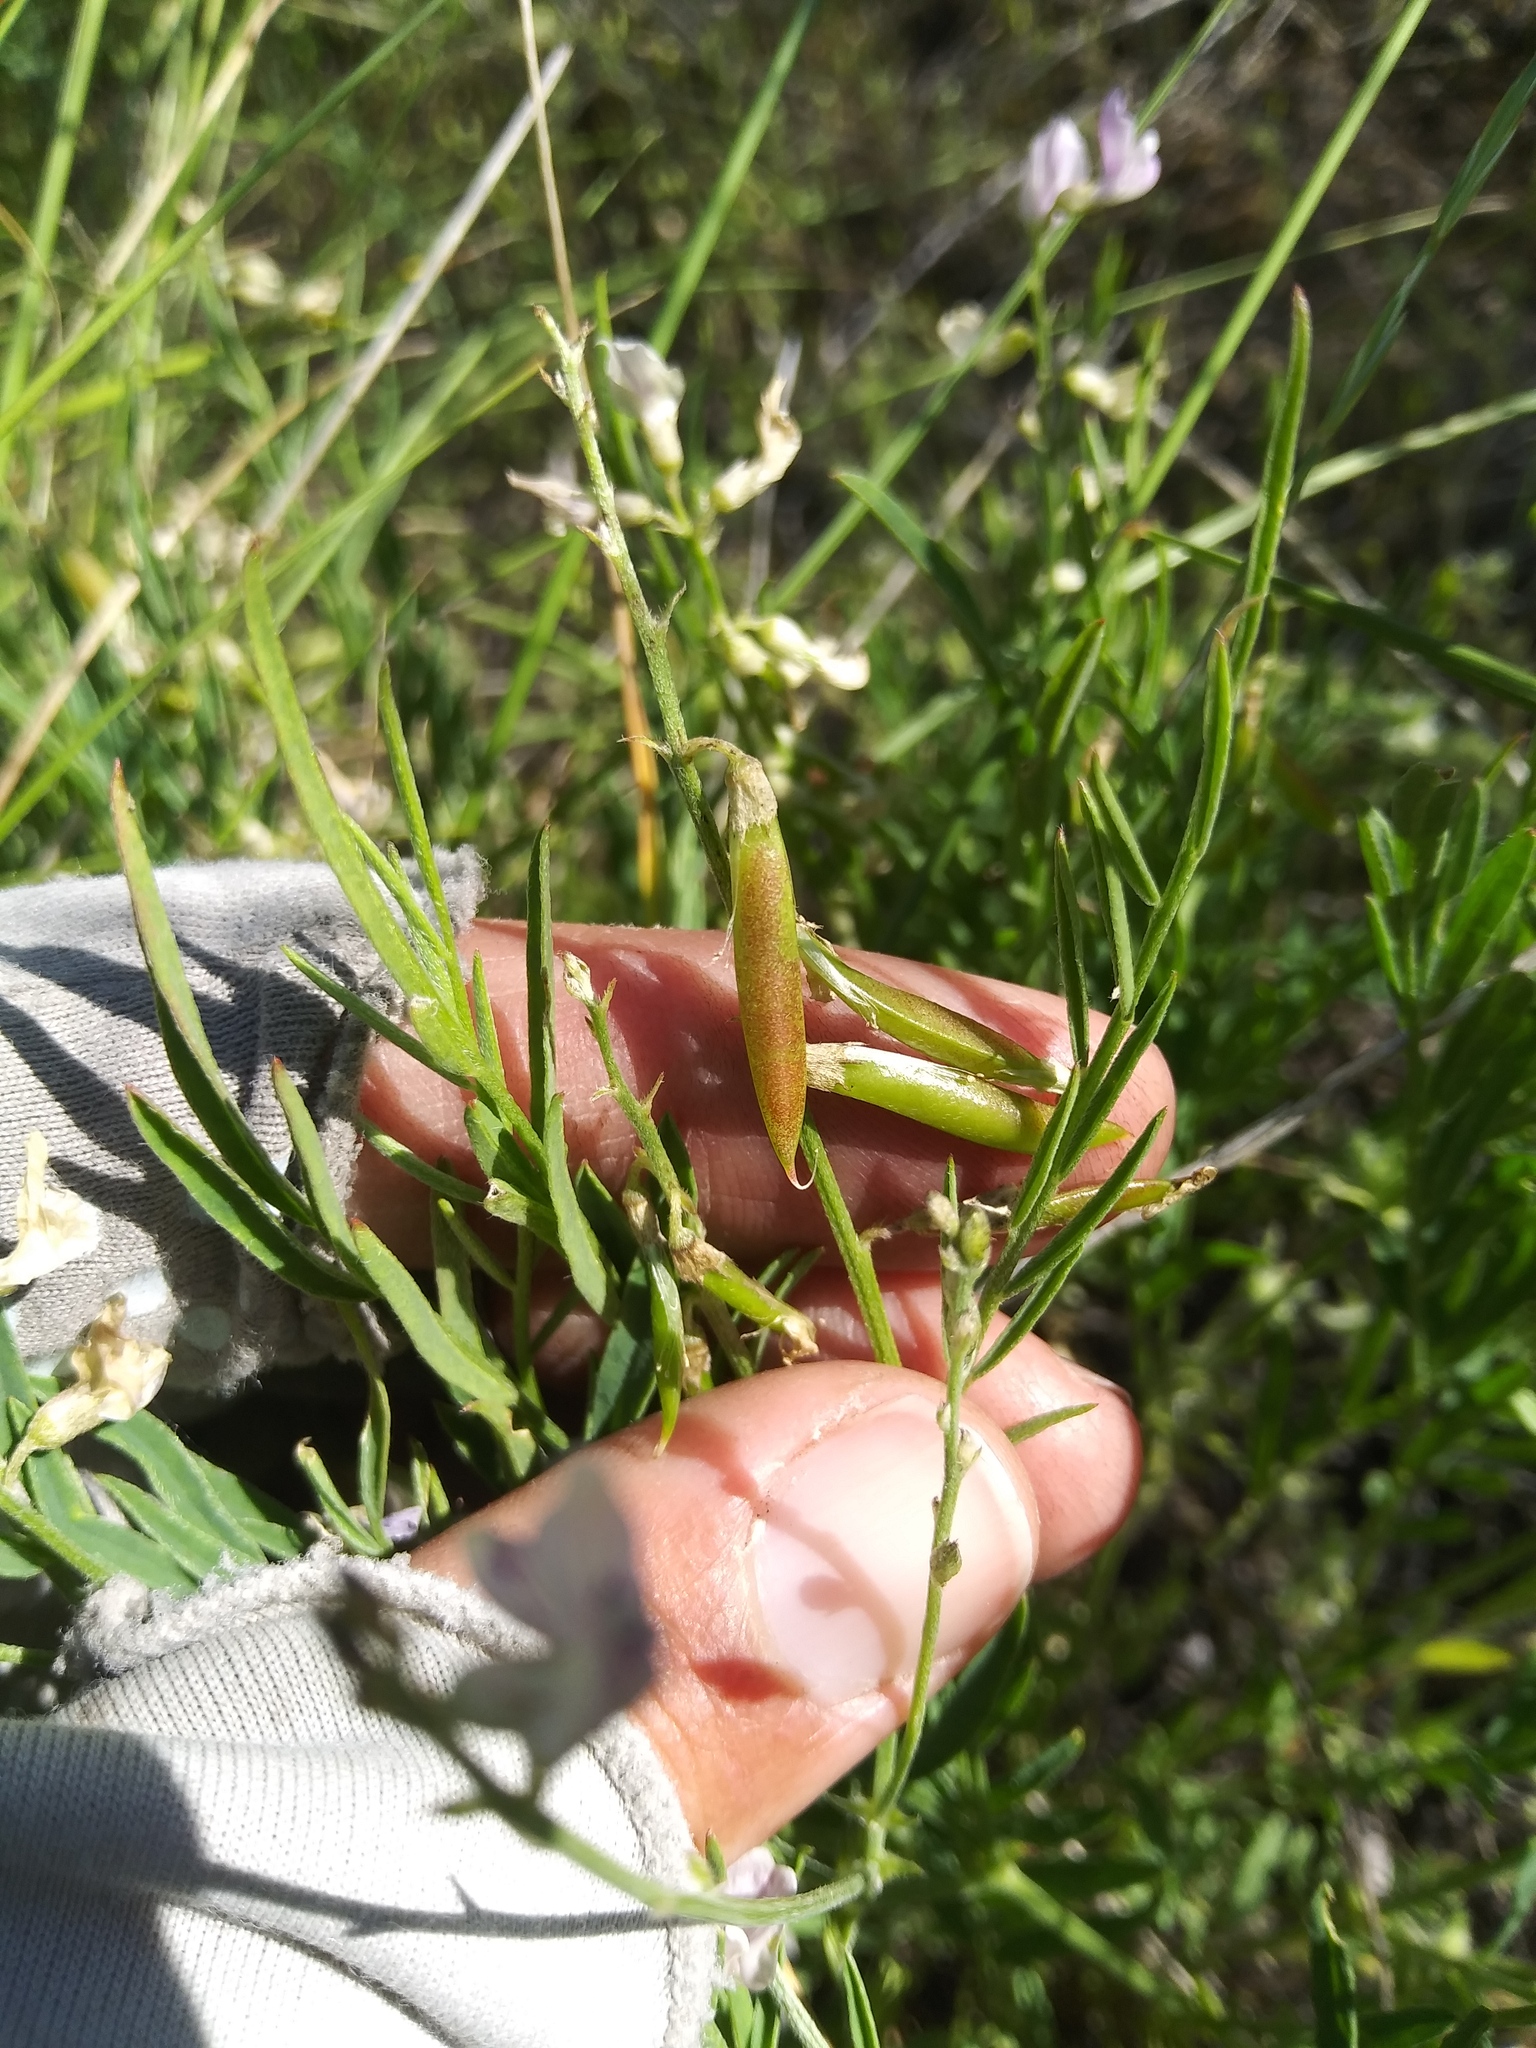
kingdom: Plantae
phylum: Tracheophyta
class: Magnoliopsida
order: Fabales
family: Fabaceae
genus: Astragalus
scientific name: Astragalus miser
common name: Timber milkvetch
